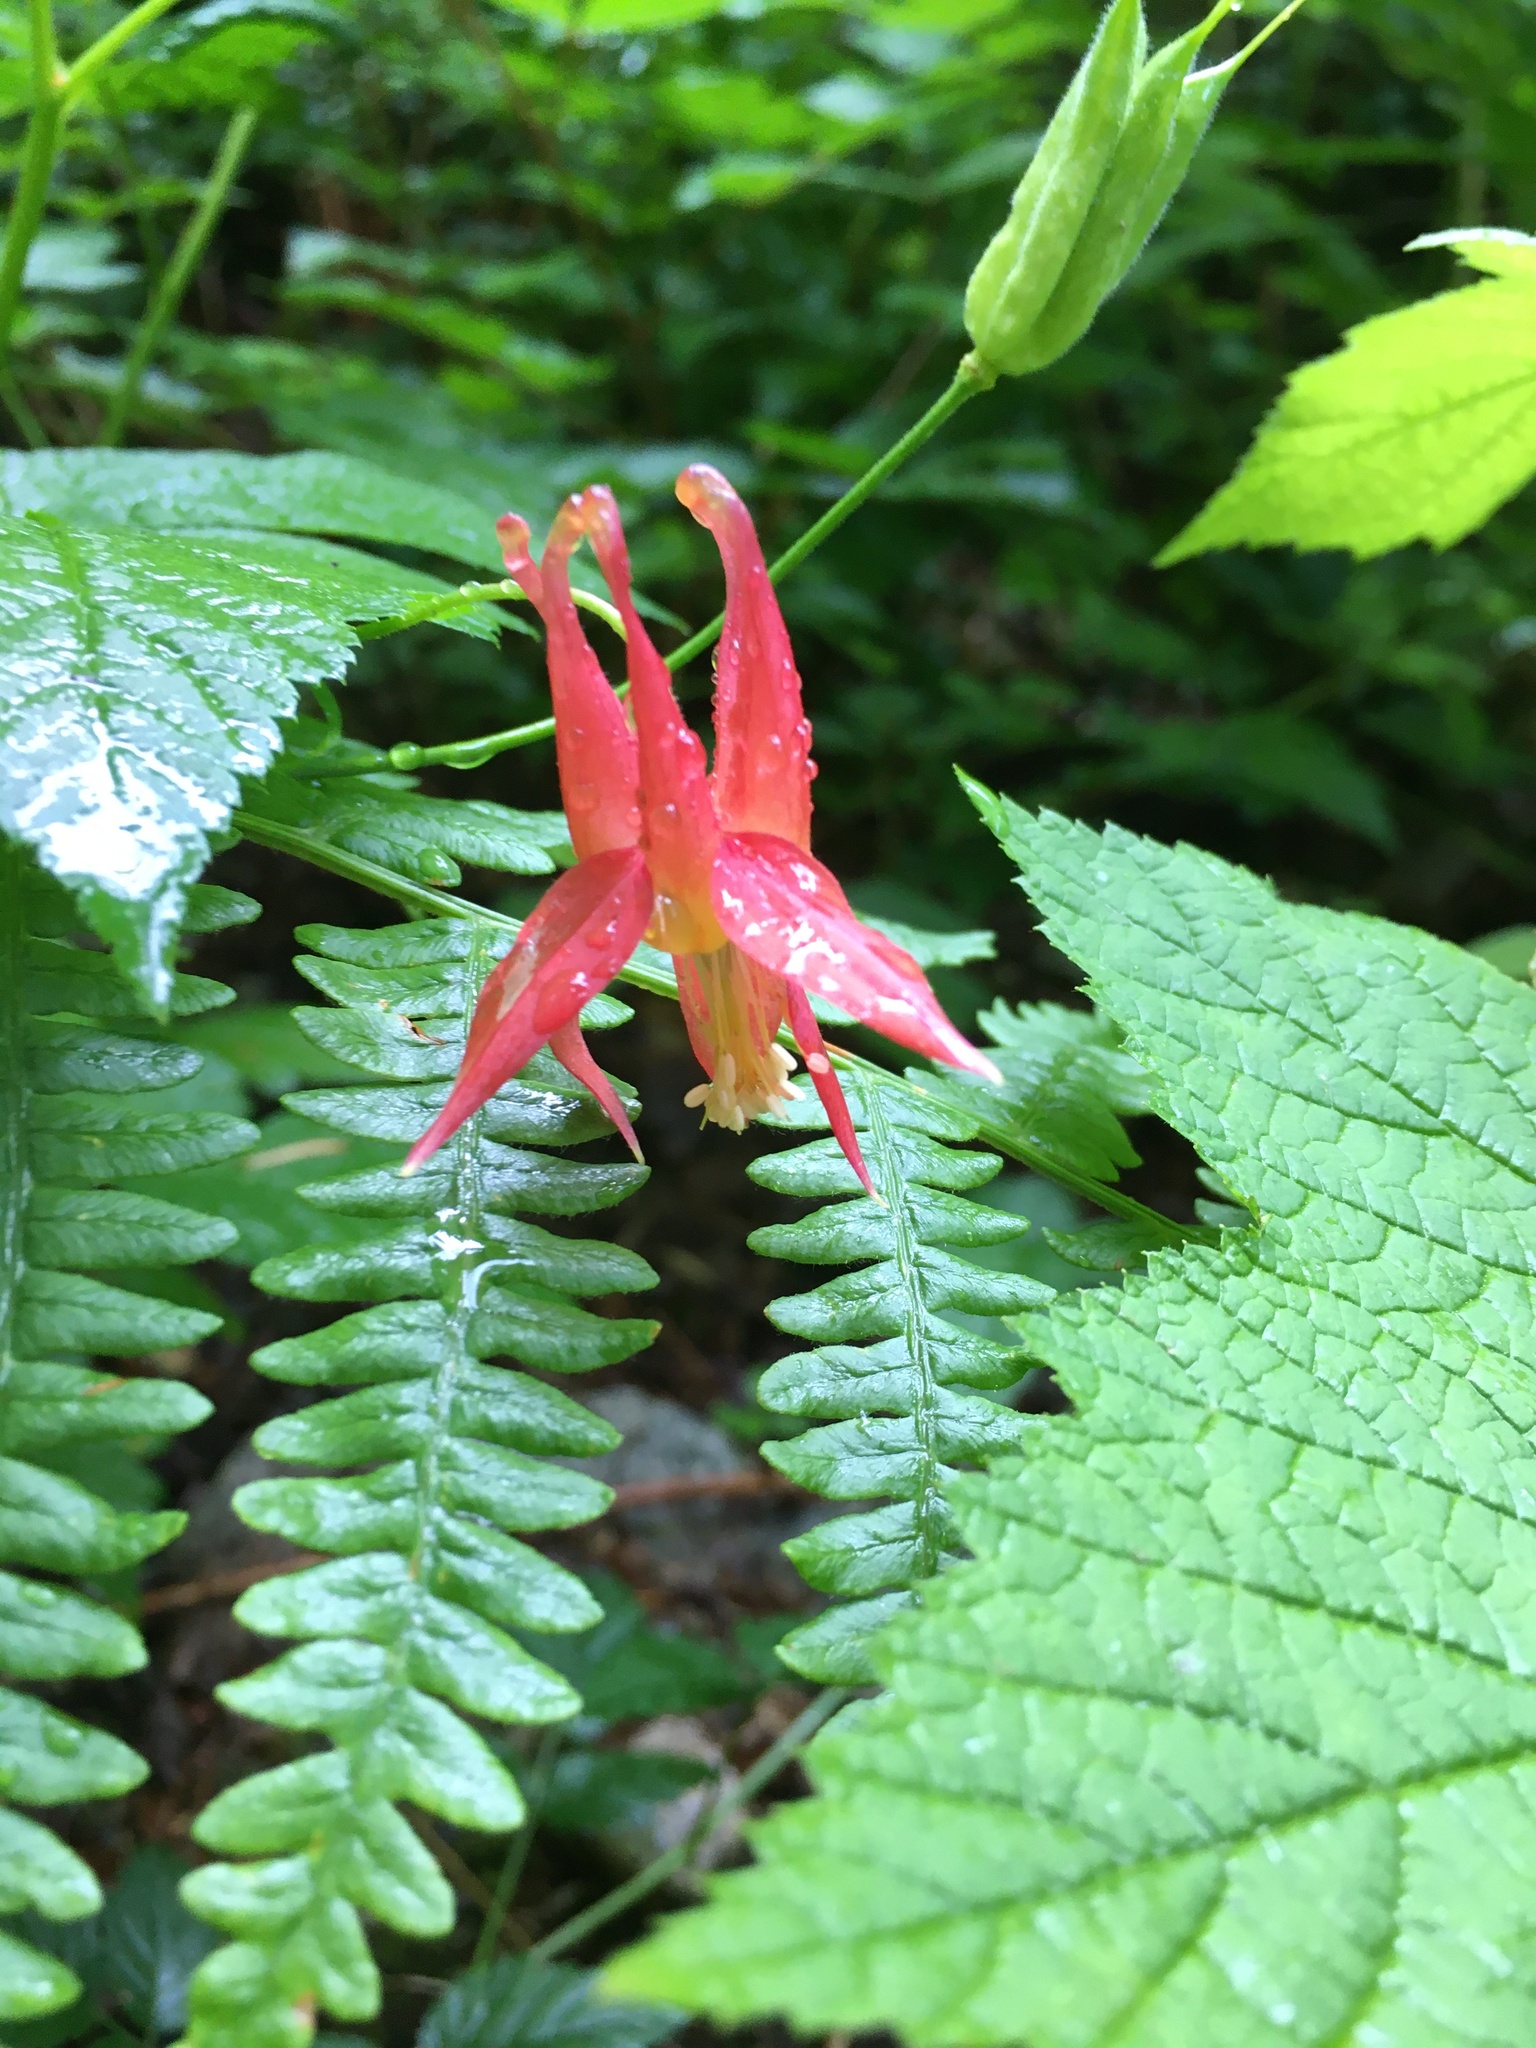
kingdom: Plantae
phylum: Tracheophyta
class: Magnoliopsida
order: Ranunculales
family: Ranunculaceae
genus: Aquilegia
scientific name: Aquilegia formosa
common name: Sitka columbine
